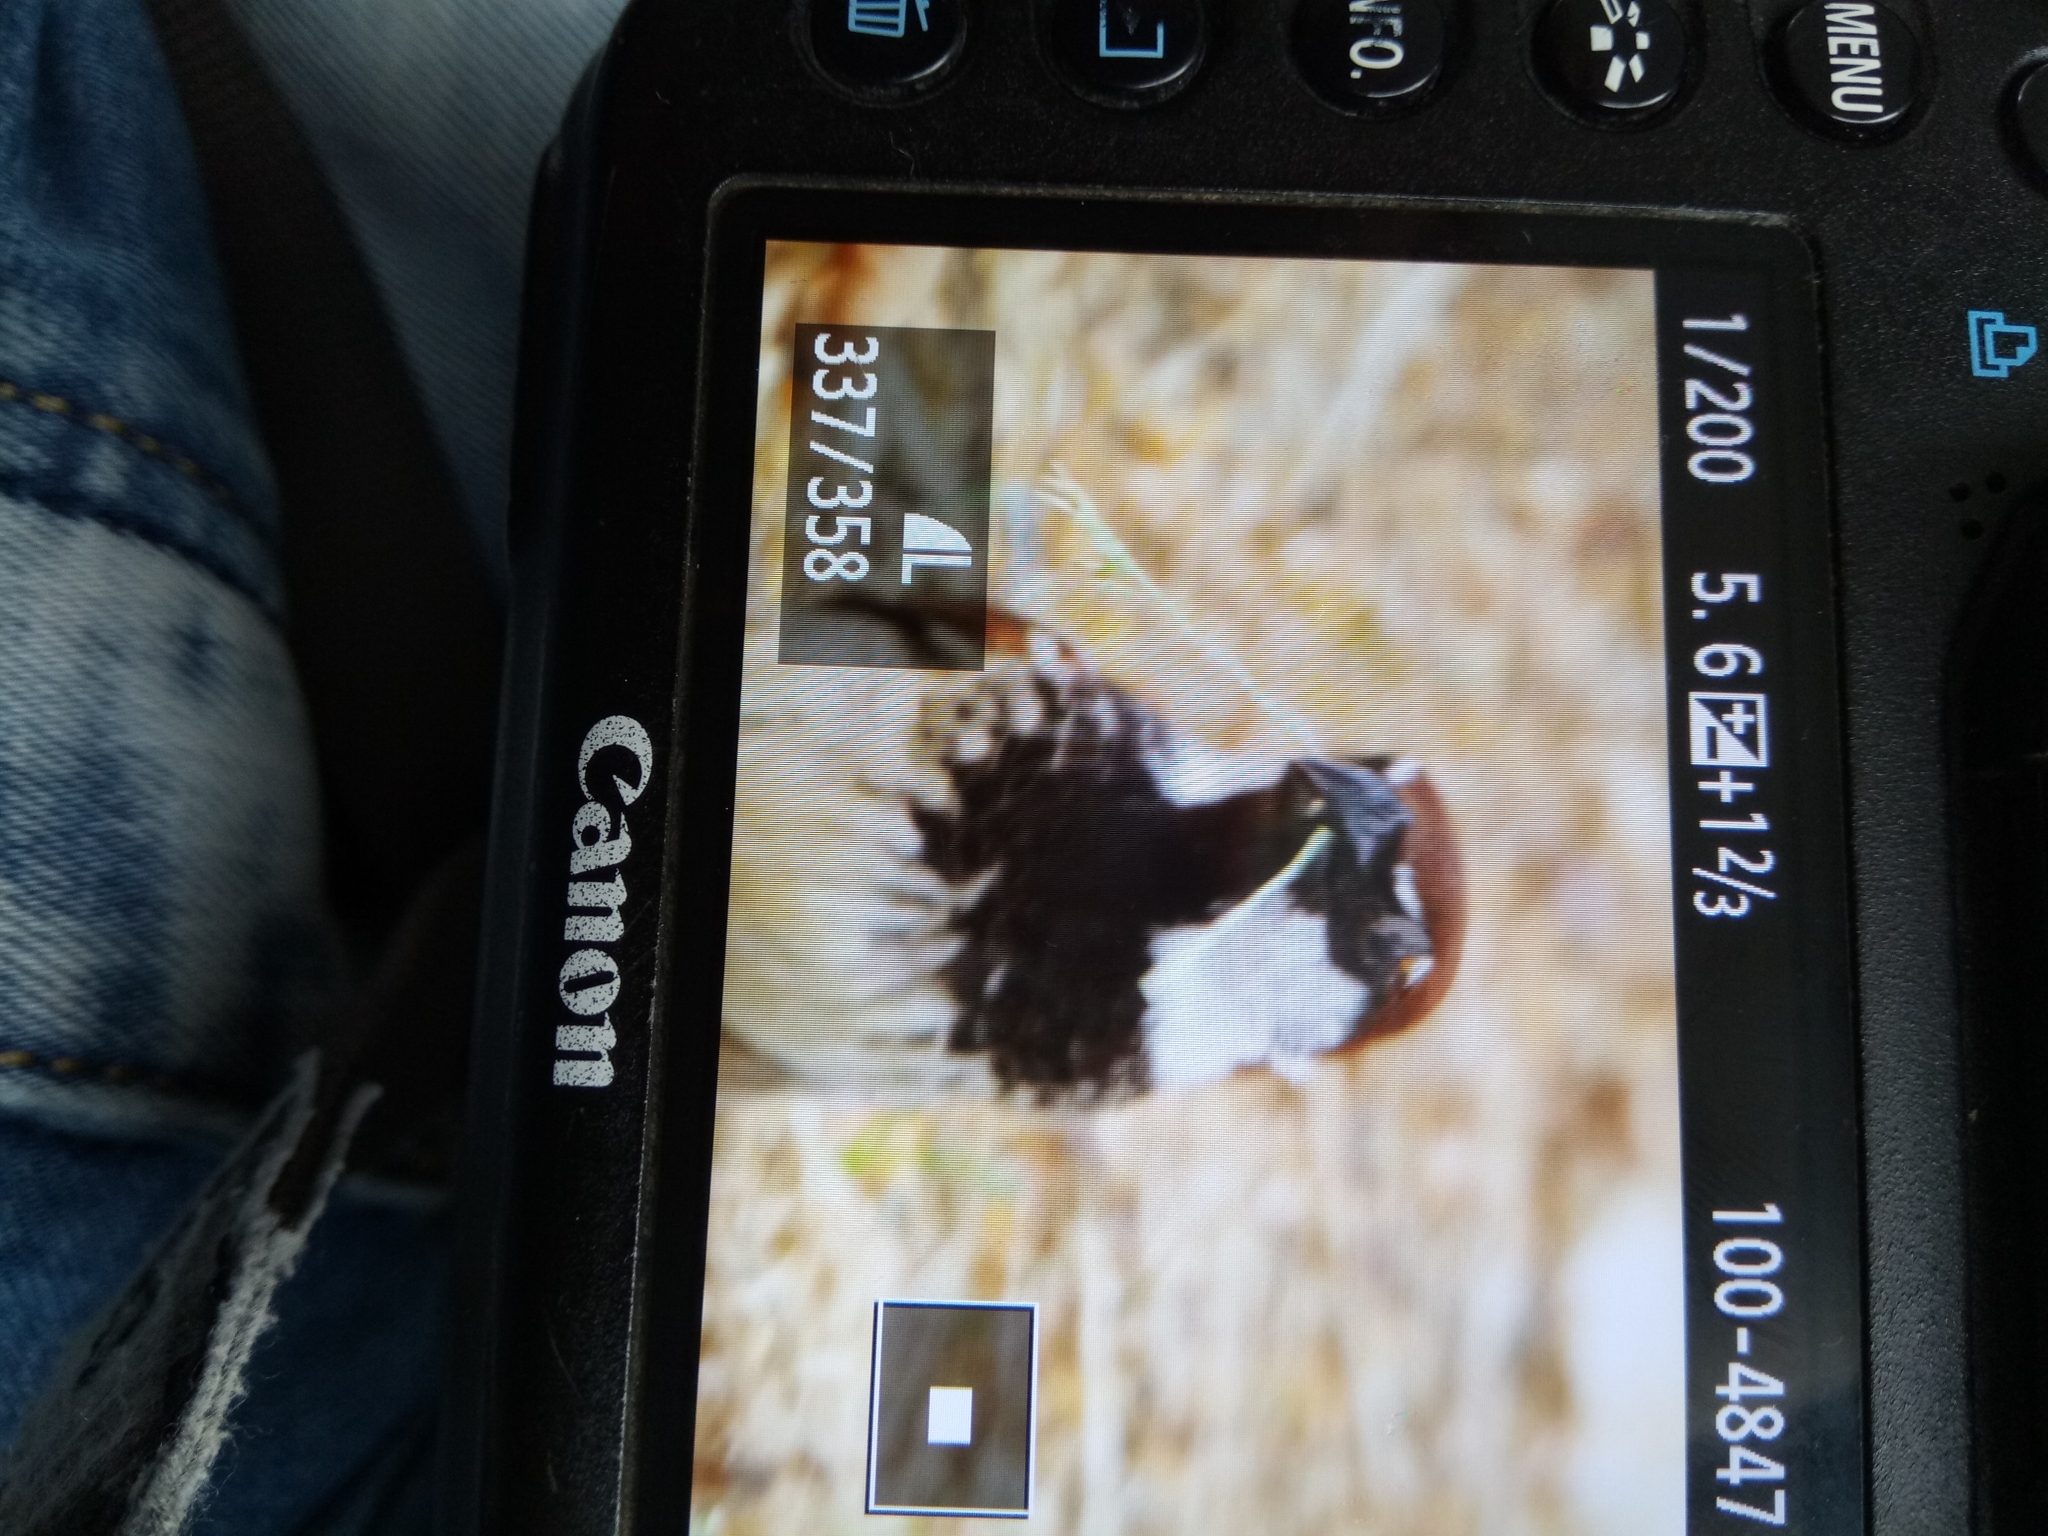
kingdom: Animalia
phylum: Chordata
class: Aves
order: Passeriformes
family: Passeridae
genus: Passer
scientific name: Passer italiae
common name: Italian sparrow
